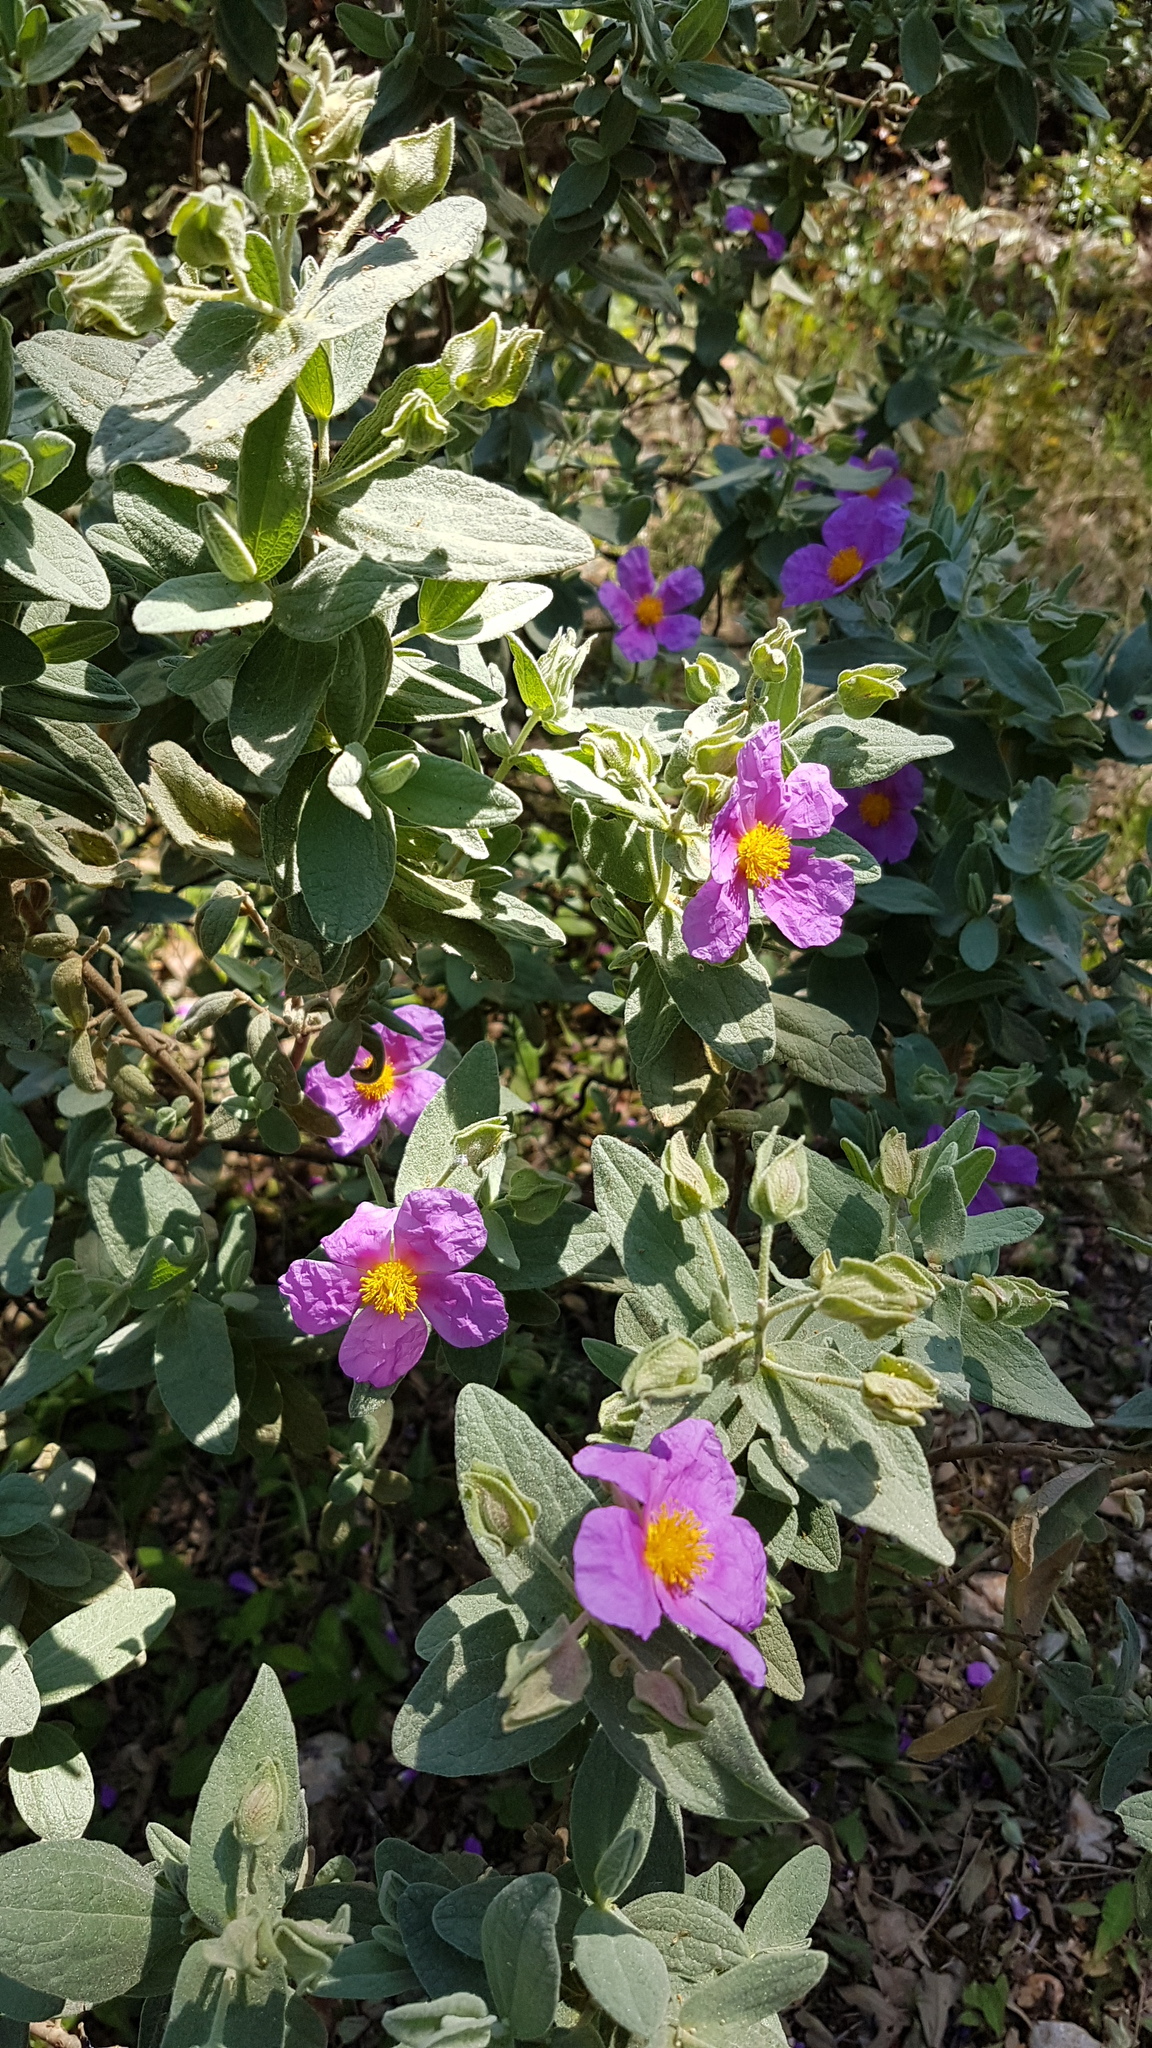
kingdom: Plantae
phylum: Tracheophyta
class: Magnoliopsida
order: Malvales
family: Cistaceae
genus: Cistus
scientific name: Cistus albidus
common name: White-leaf rock-rose
